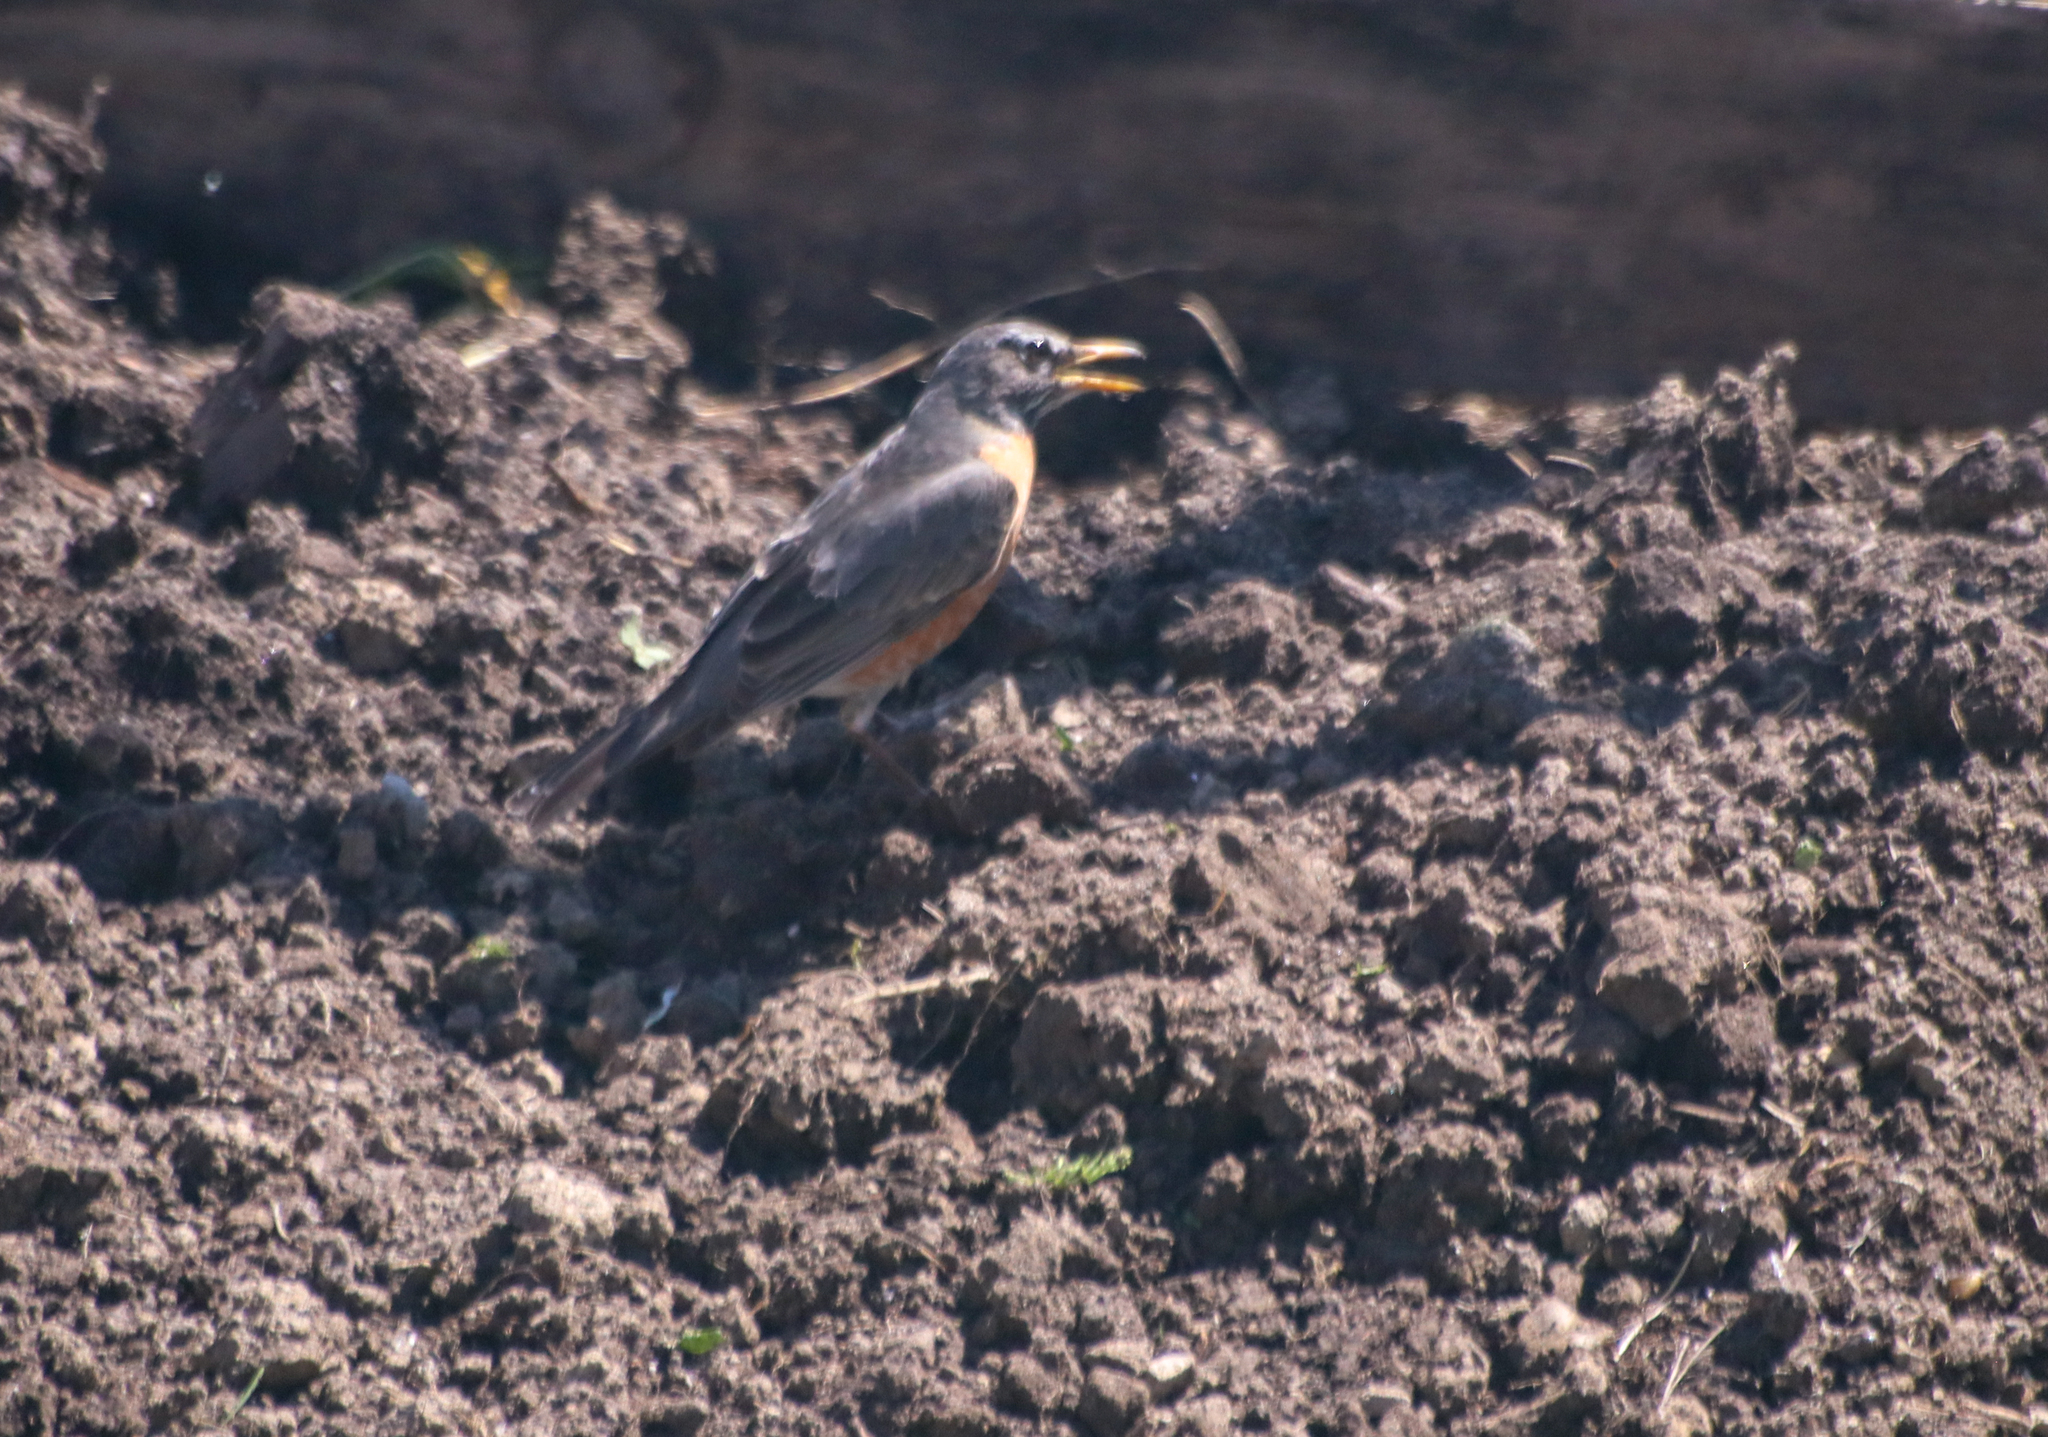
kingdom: Animalia
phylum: Chordata
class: Aves
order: Passeriformes
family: Turdidae
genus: Turdus
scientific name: Turdus migratorius
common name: American robin
